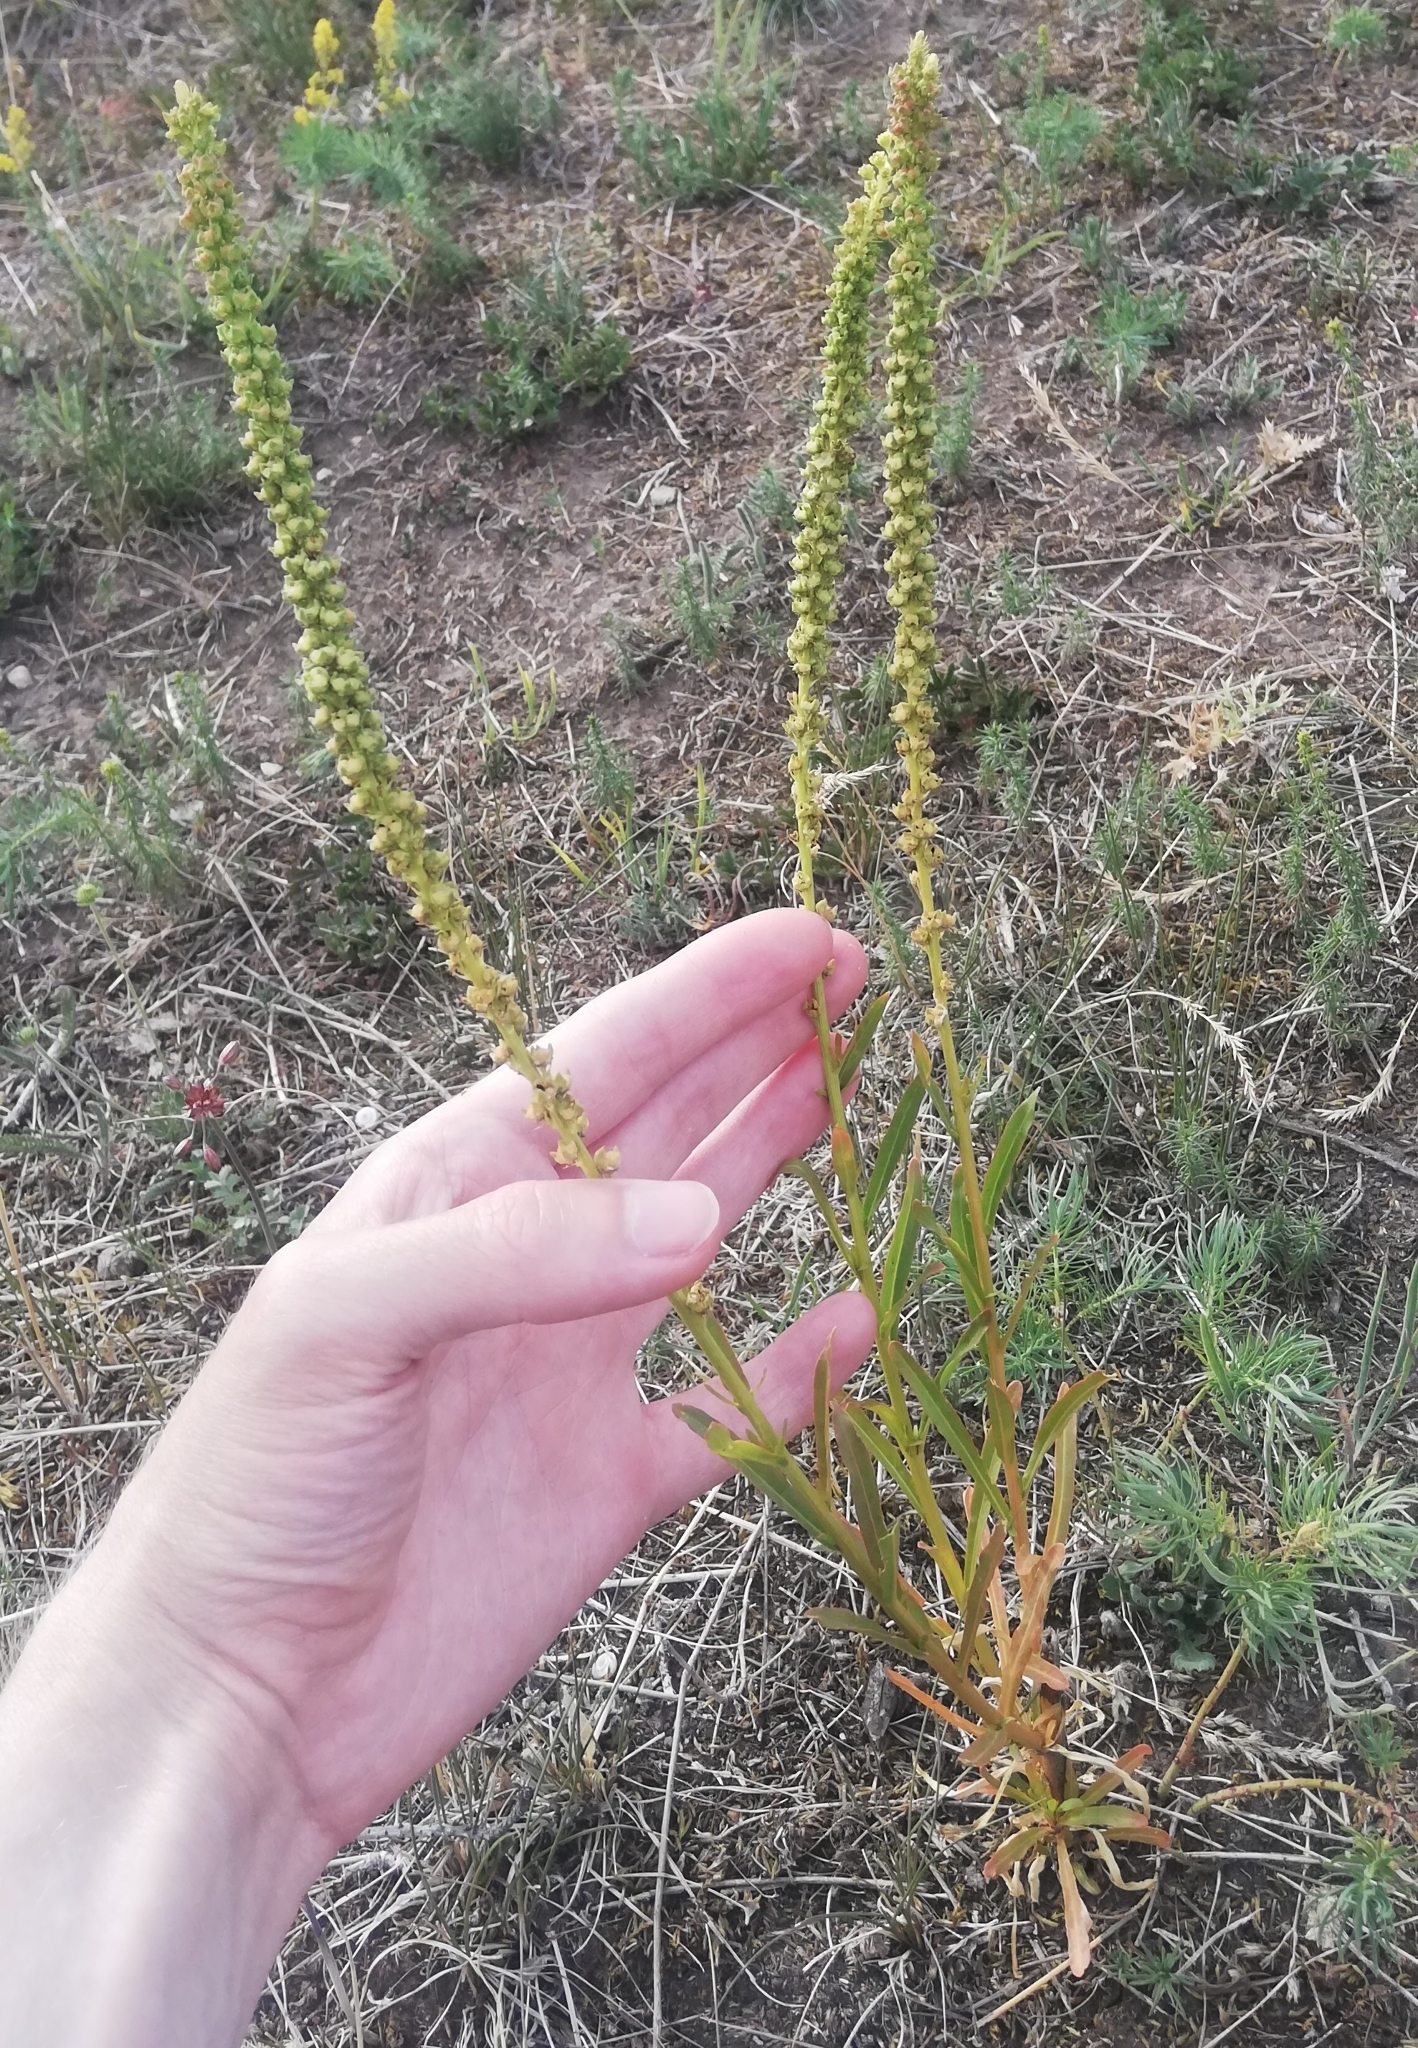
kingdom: Plantae
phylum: Tracheophyta
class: Magnoliopsida
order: Brassicales
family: Resedaceae
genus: Reseda
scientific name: Reseda luteola
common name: Weld
